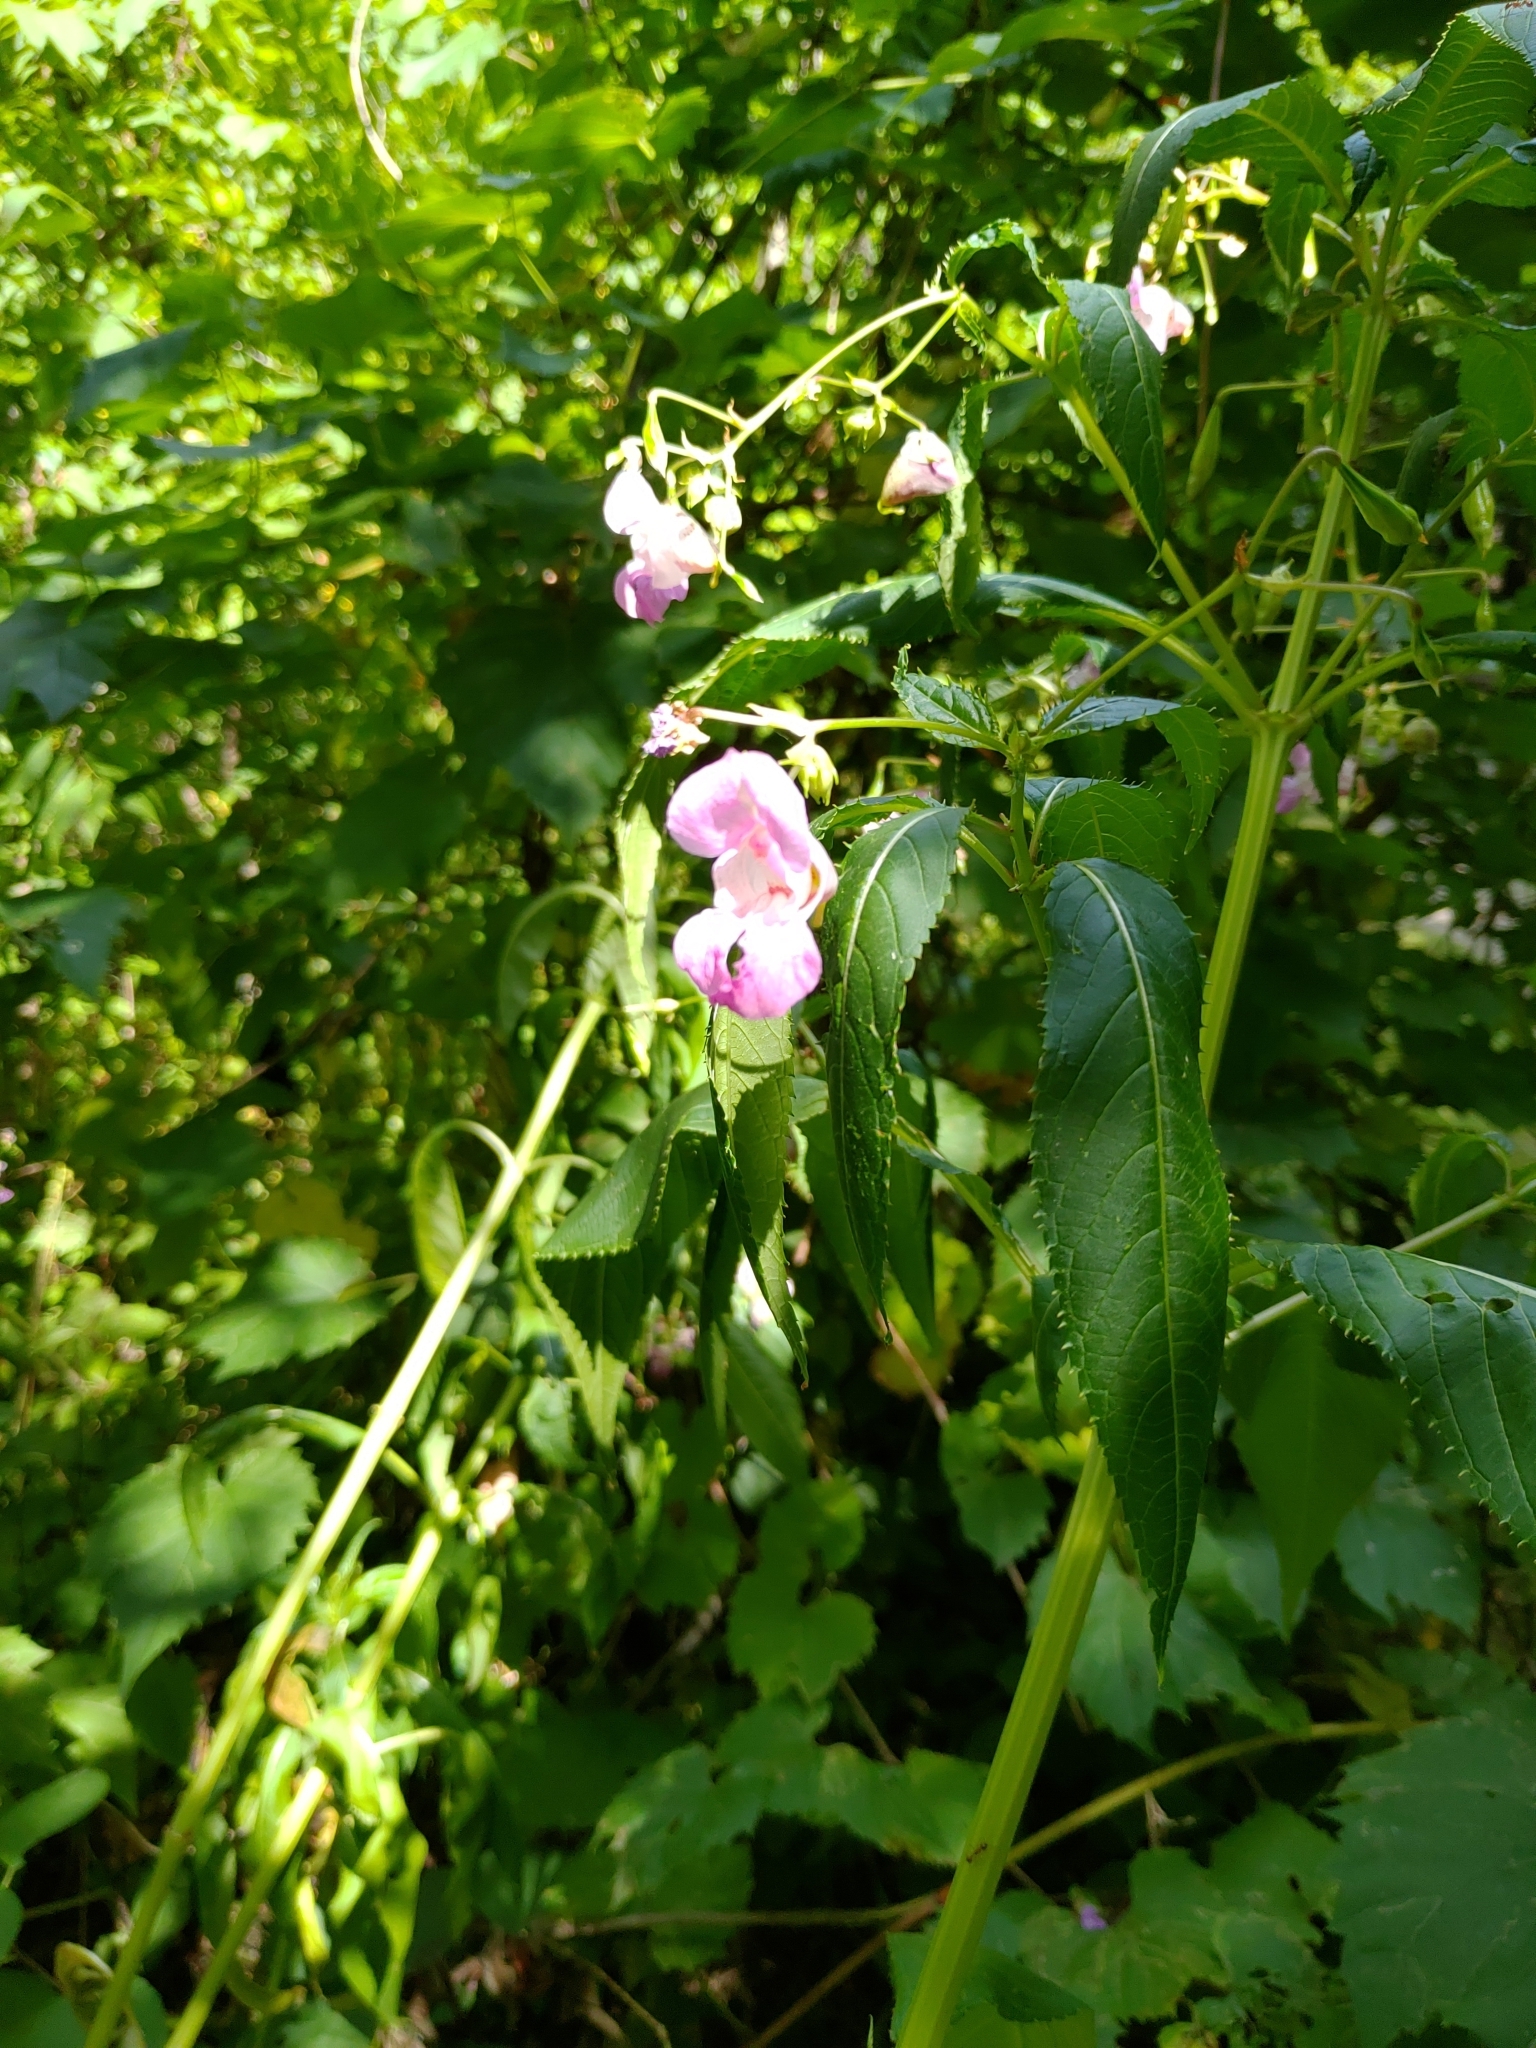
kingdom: Plantae
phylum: Tracheophyta
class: Magnoliopsida
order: Ericales
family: Balsaminaceae
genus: Impatiens
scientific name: Impatiens glandulifera
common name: Himalayan balsam
